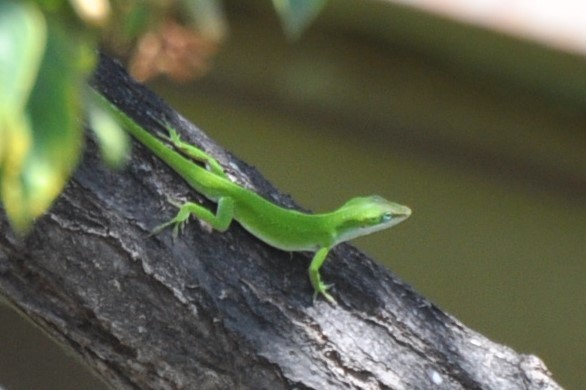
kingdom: Animalia
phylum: Chordata
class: Squamata
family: Dactyloidae
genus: Anolis
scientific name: Anolis carolinensis
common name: Green anole
